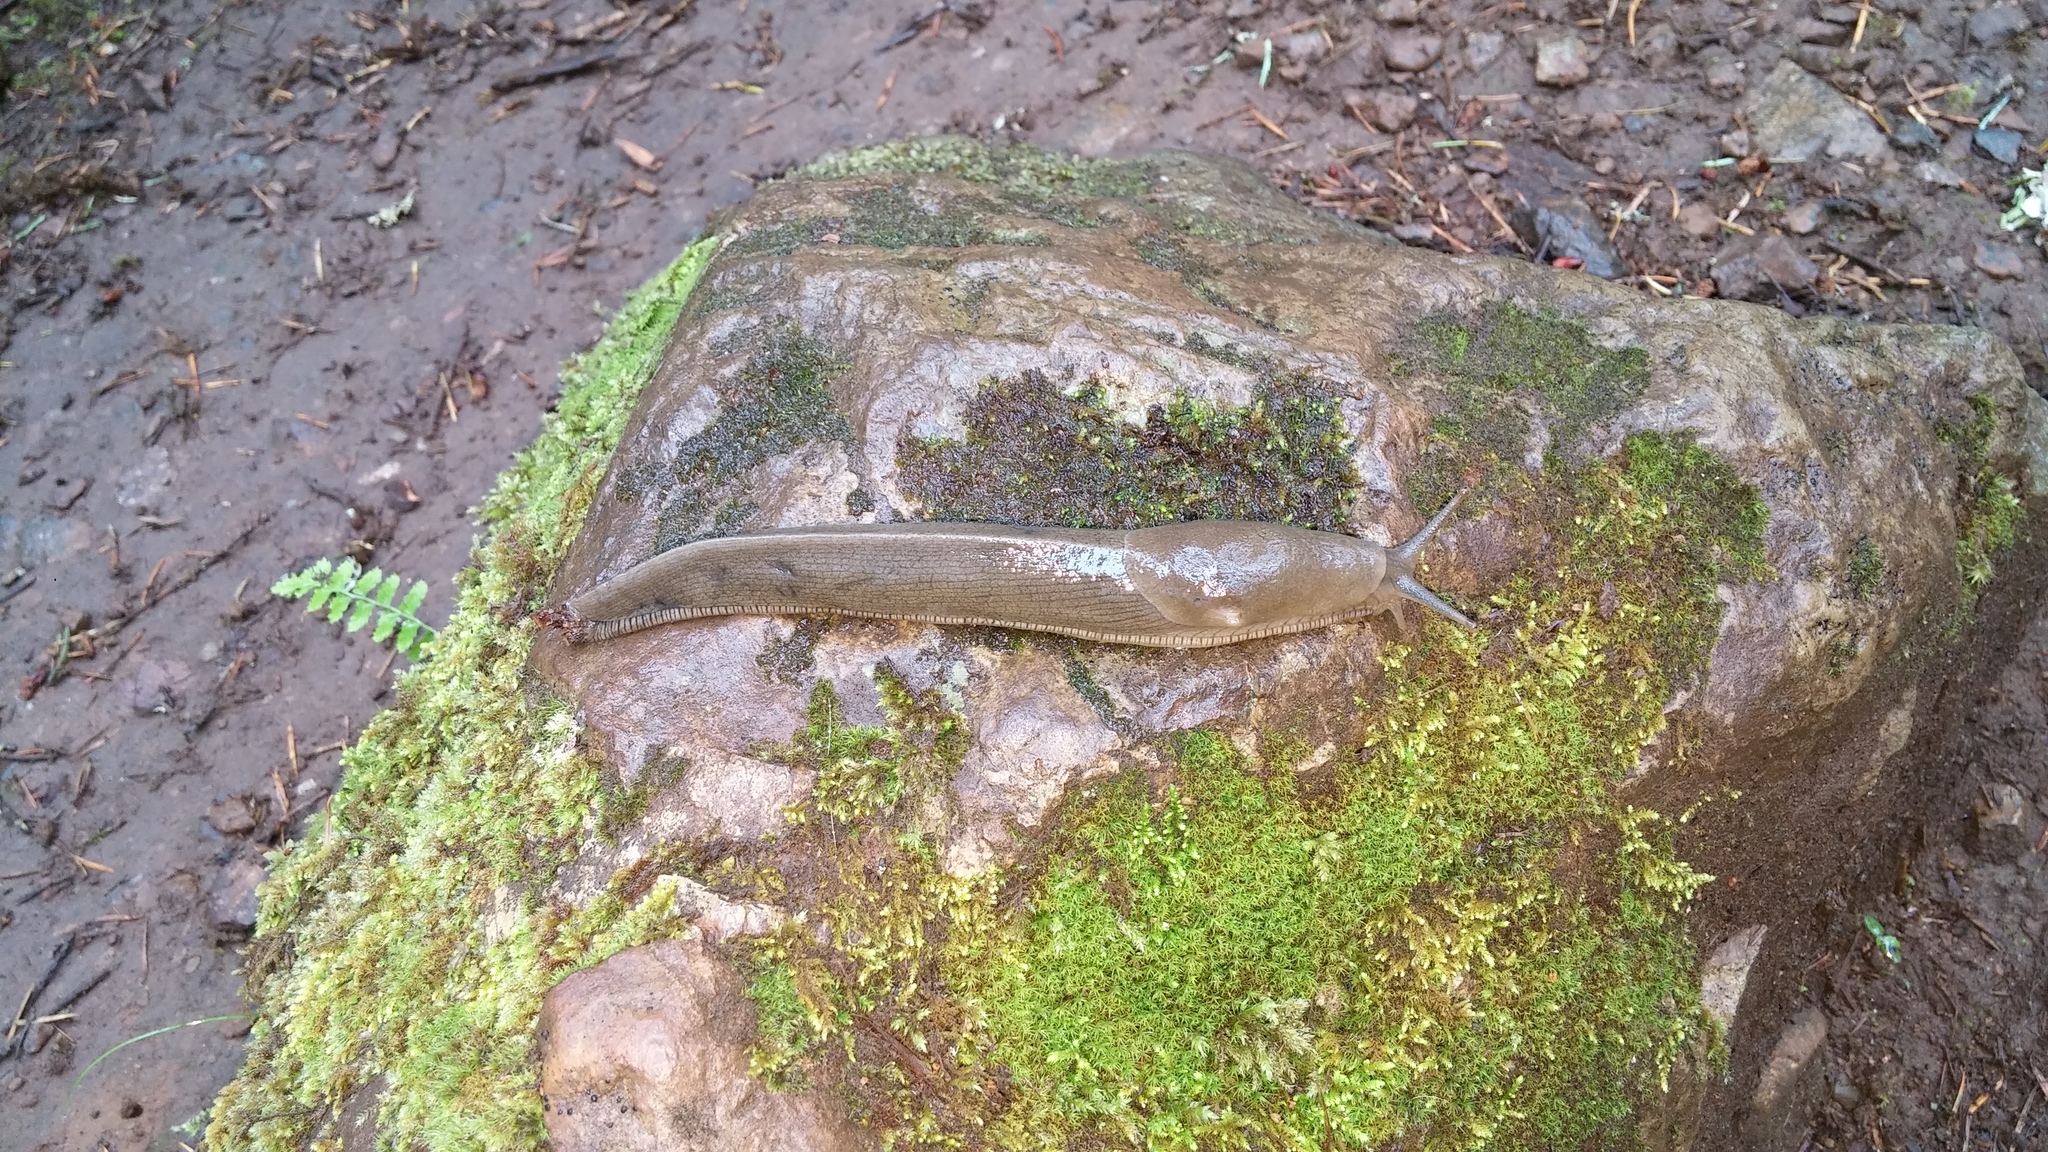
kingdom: Animalia
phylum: Mollusca
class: Gastropoda
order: Stylommatophora
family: Ariolimacidae
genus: Ariolimax
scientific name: Ariolimax columbianus
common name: Pacific banana slug
